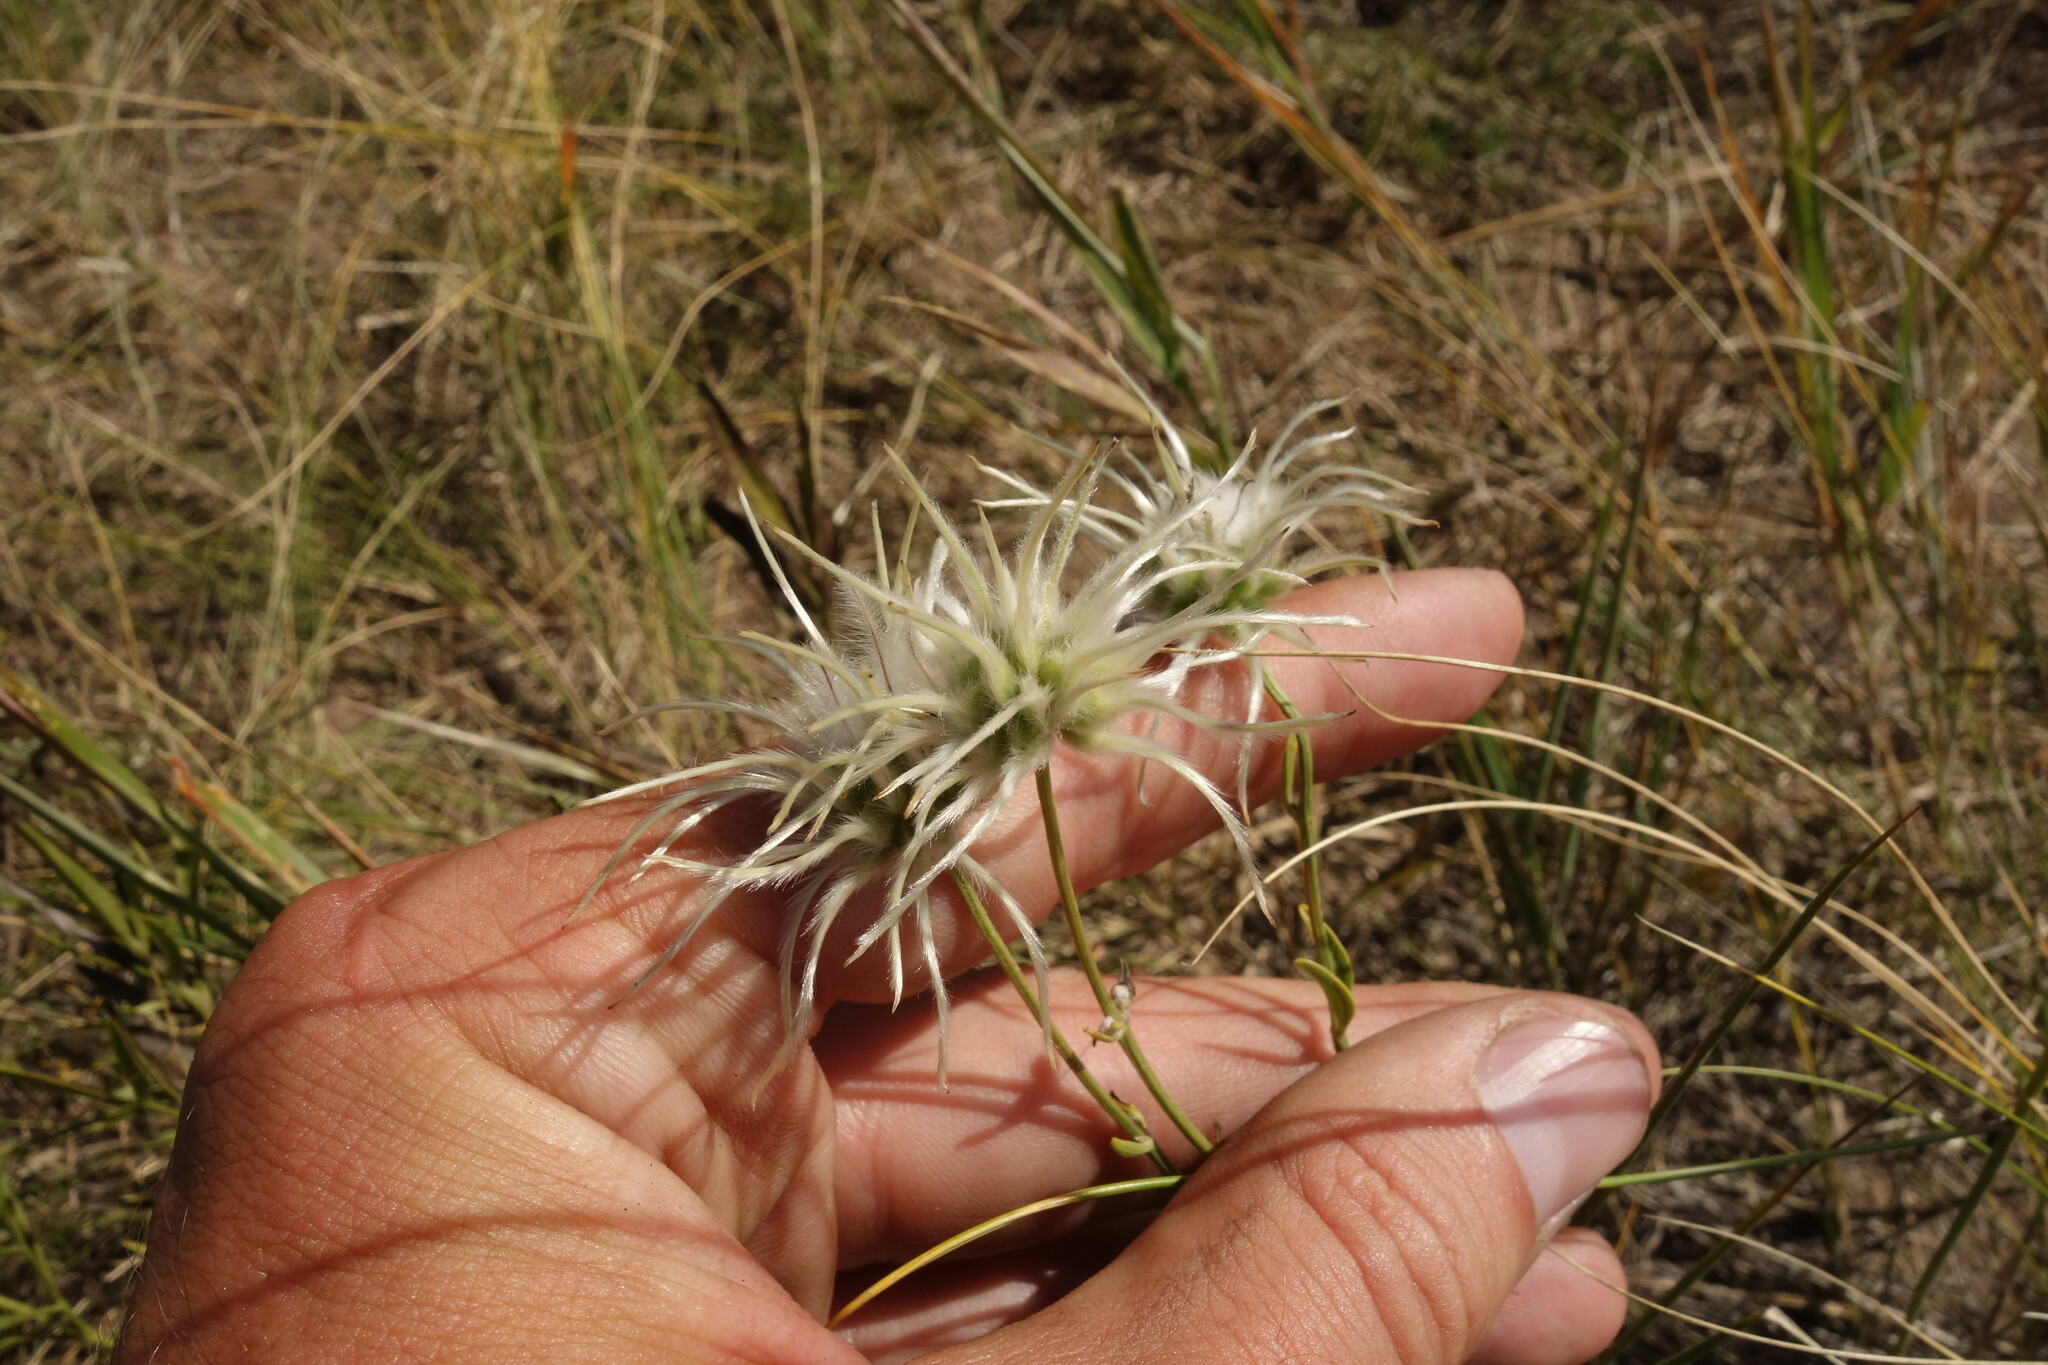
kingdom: Plantae
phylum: Tracheophyta
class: Magnoliopsida
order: Ranunculales
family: Ranunculaceae
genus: Clematis
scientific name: Clematis hexapetala
